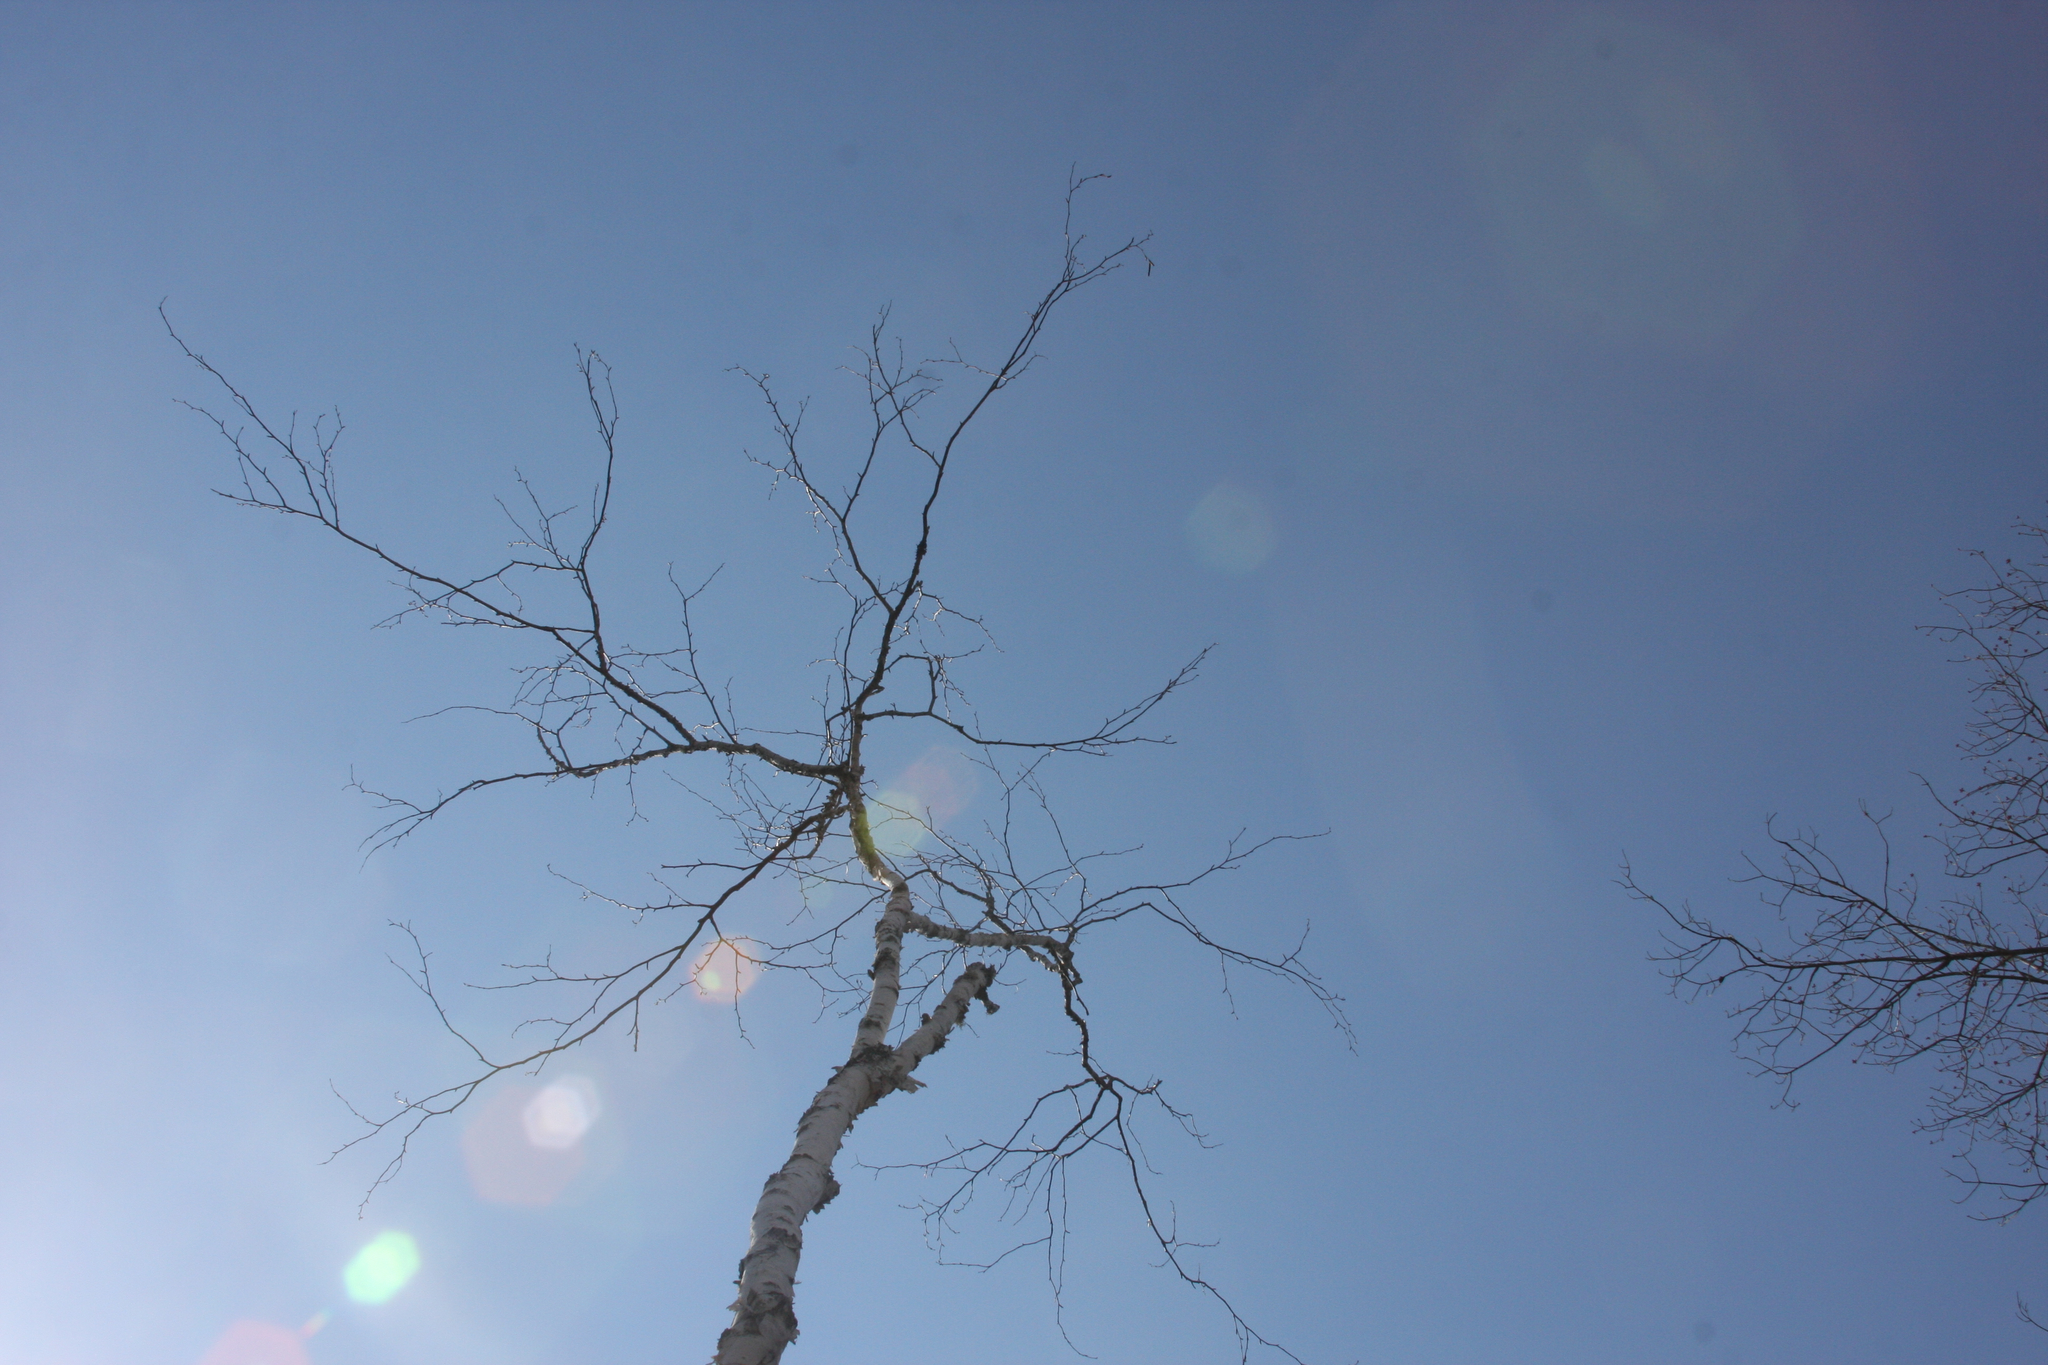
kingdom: Plantae
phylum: Tracheophyta
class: Magnoliopsida
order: Fagales
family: Betulaceae
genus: Betula
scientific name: Betula papyrifera
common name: Paper birch
